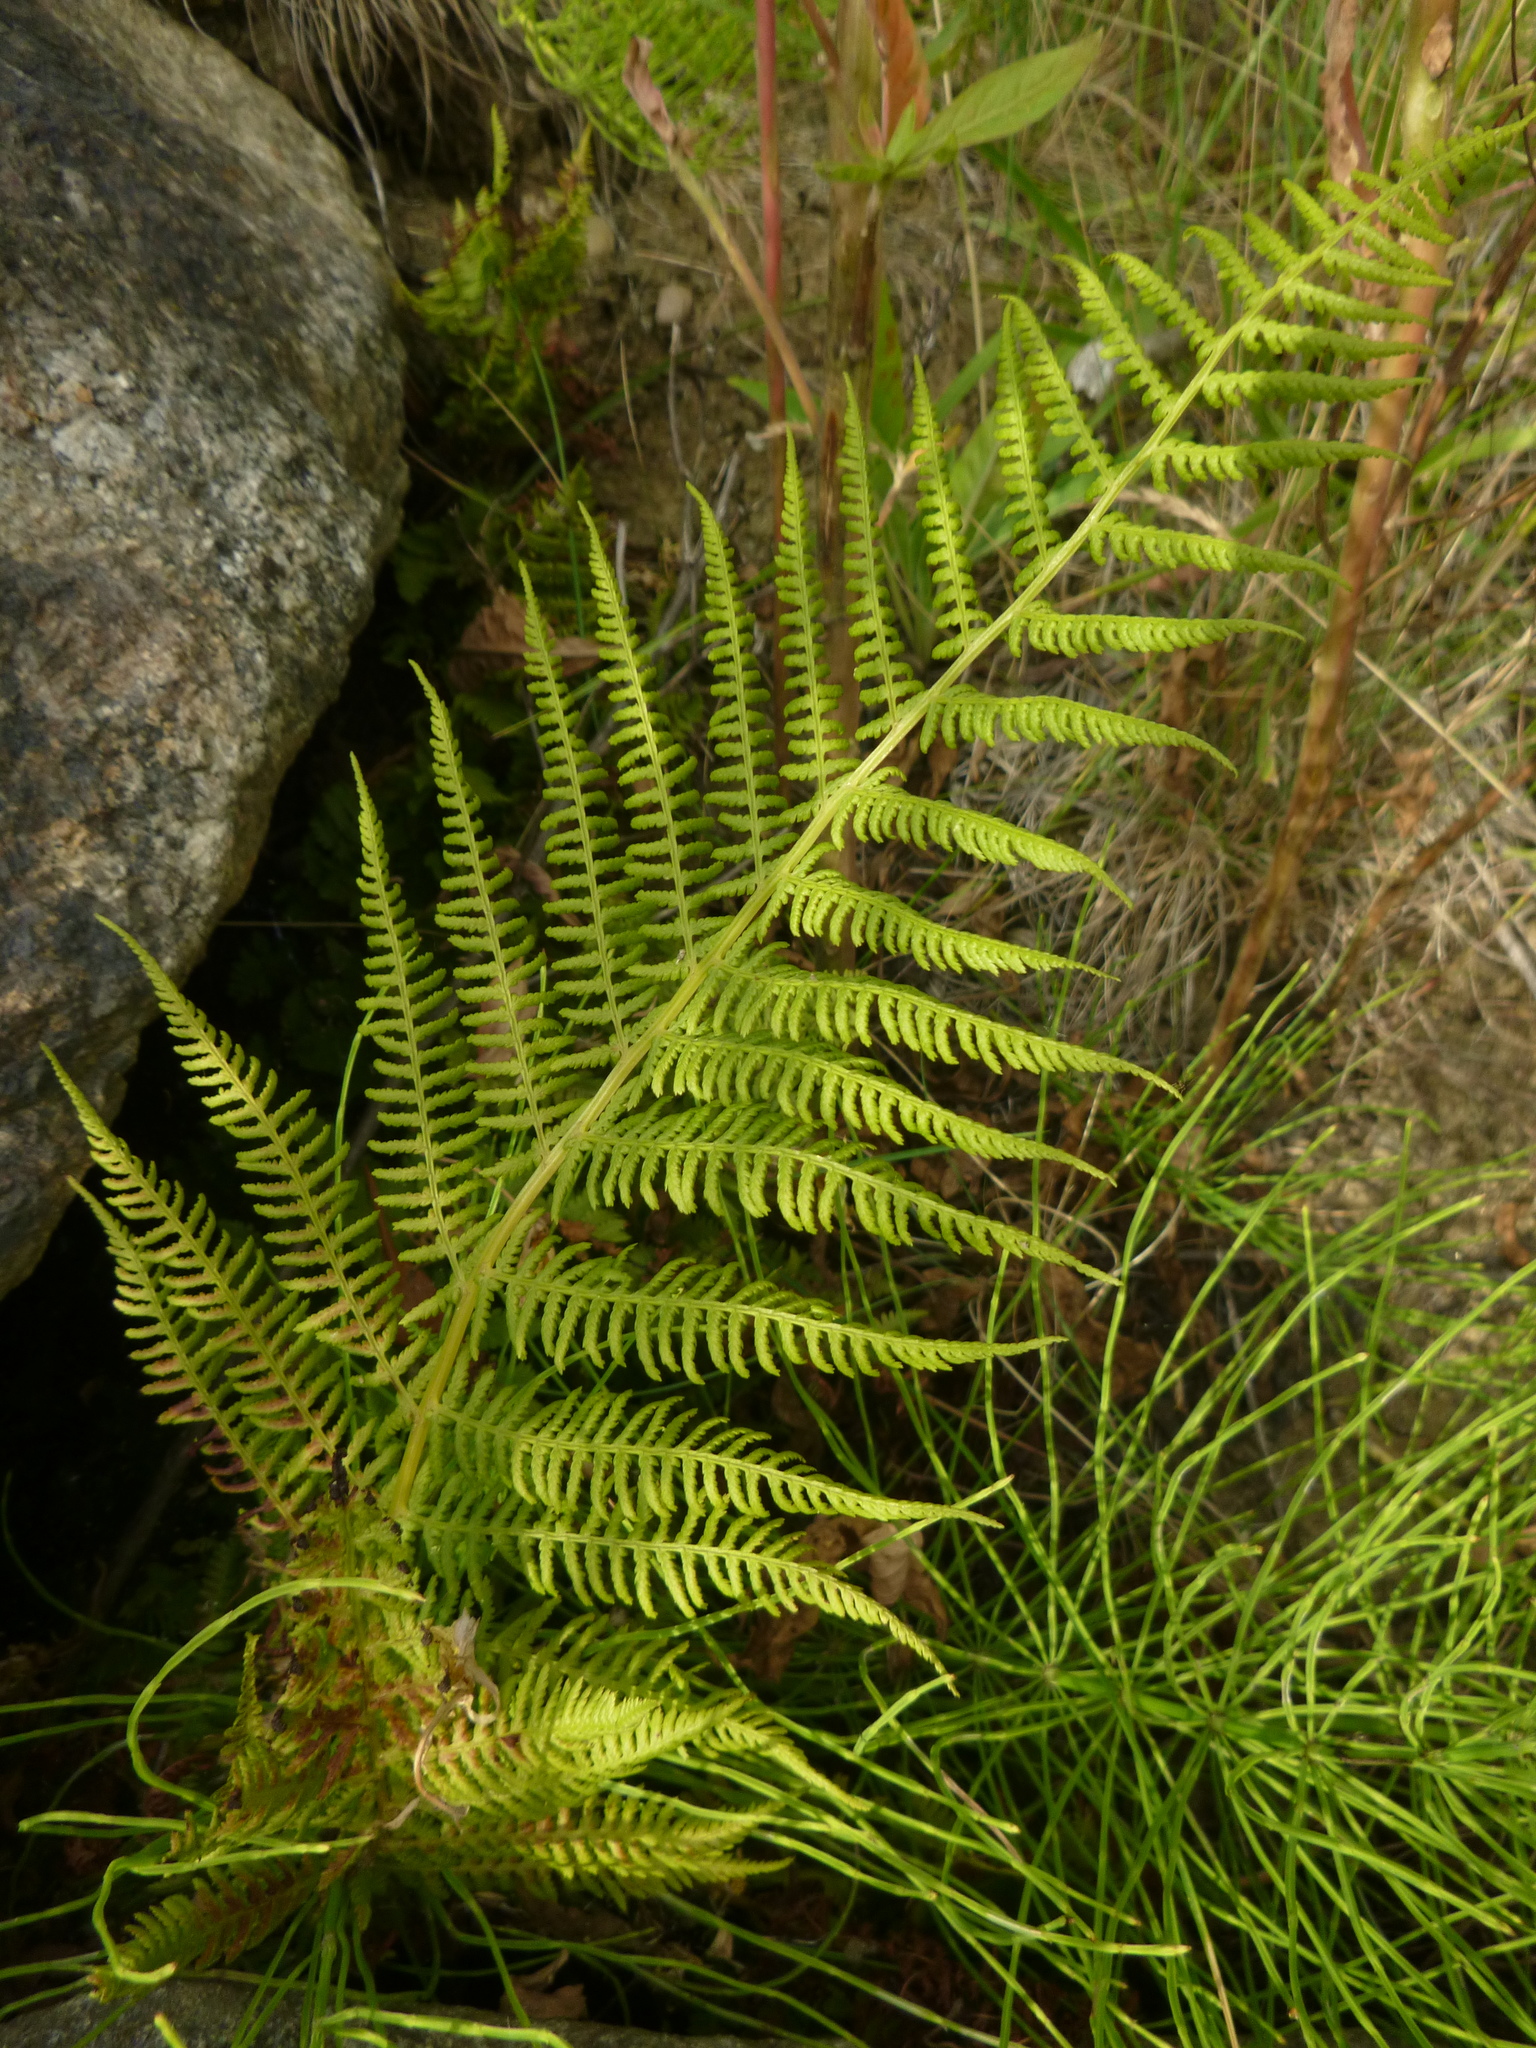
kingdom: Plantae
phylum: Tracheophyta
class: Polypodiopsida
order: Polypodiales
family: Athyriaceae
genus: Athyrium
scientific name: Athyrium filix-femina
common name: Lady fern
